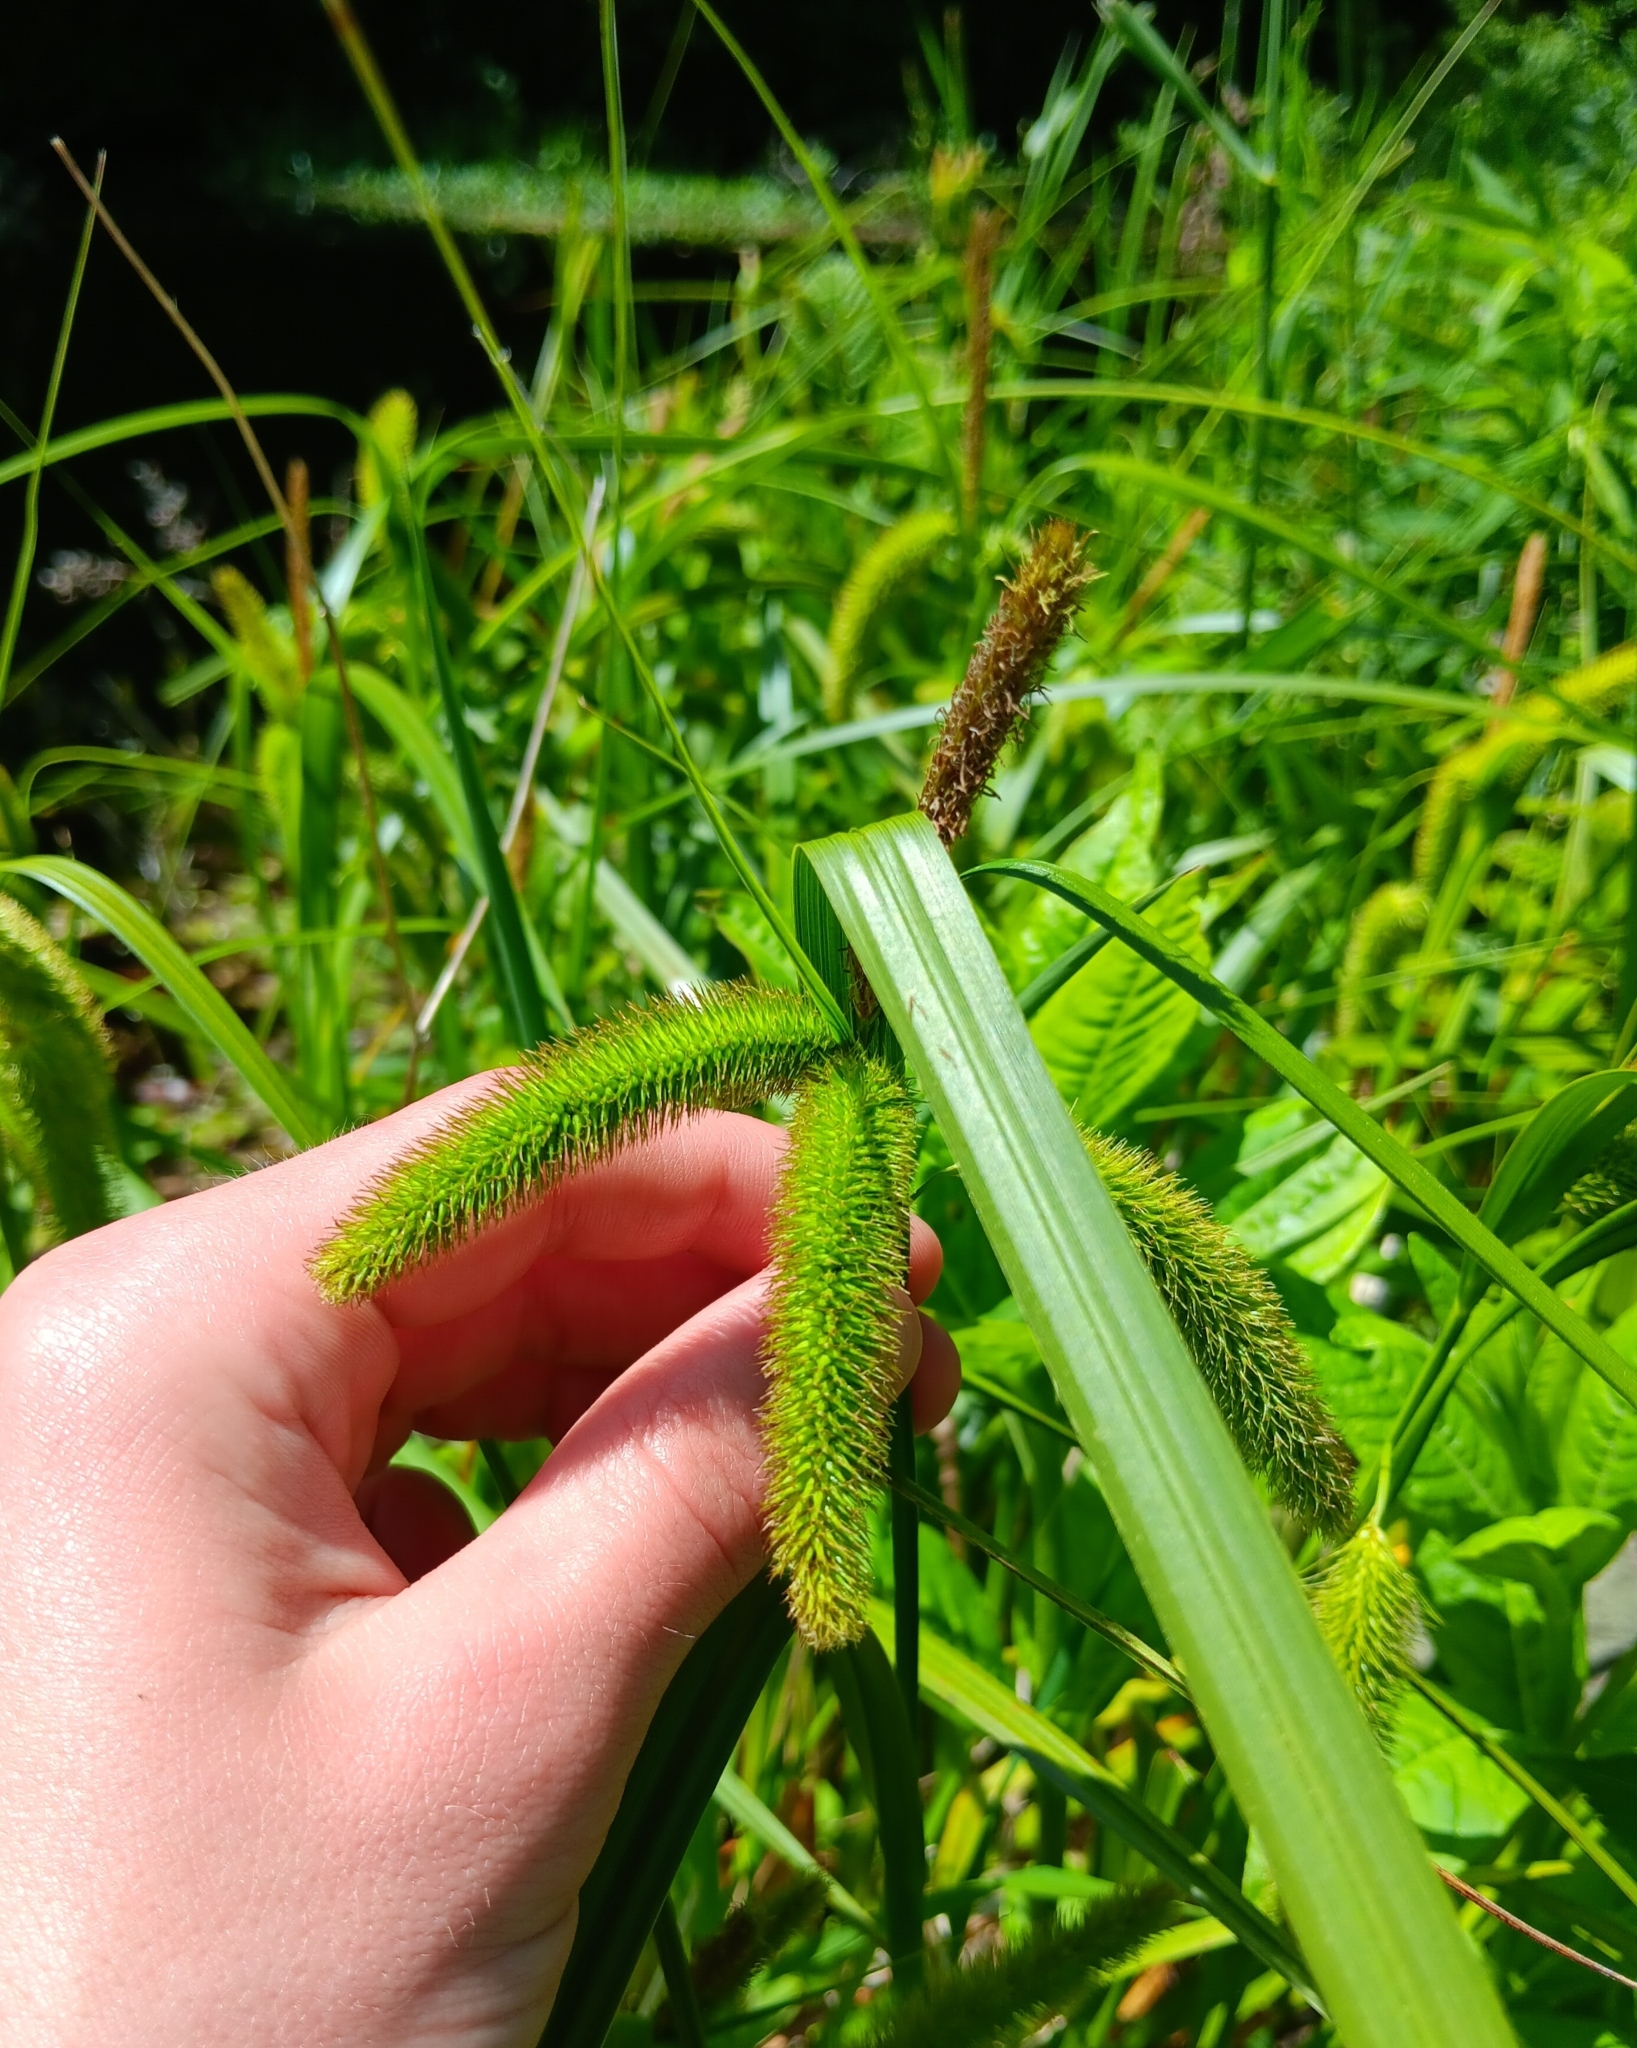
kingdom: Plantae
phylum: Tracheophyta
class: Liliopsida
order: Poales
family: Cyperaceae
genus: Carex
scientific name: Carex comosa
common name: Bristly sedge
